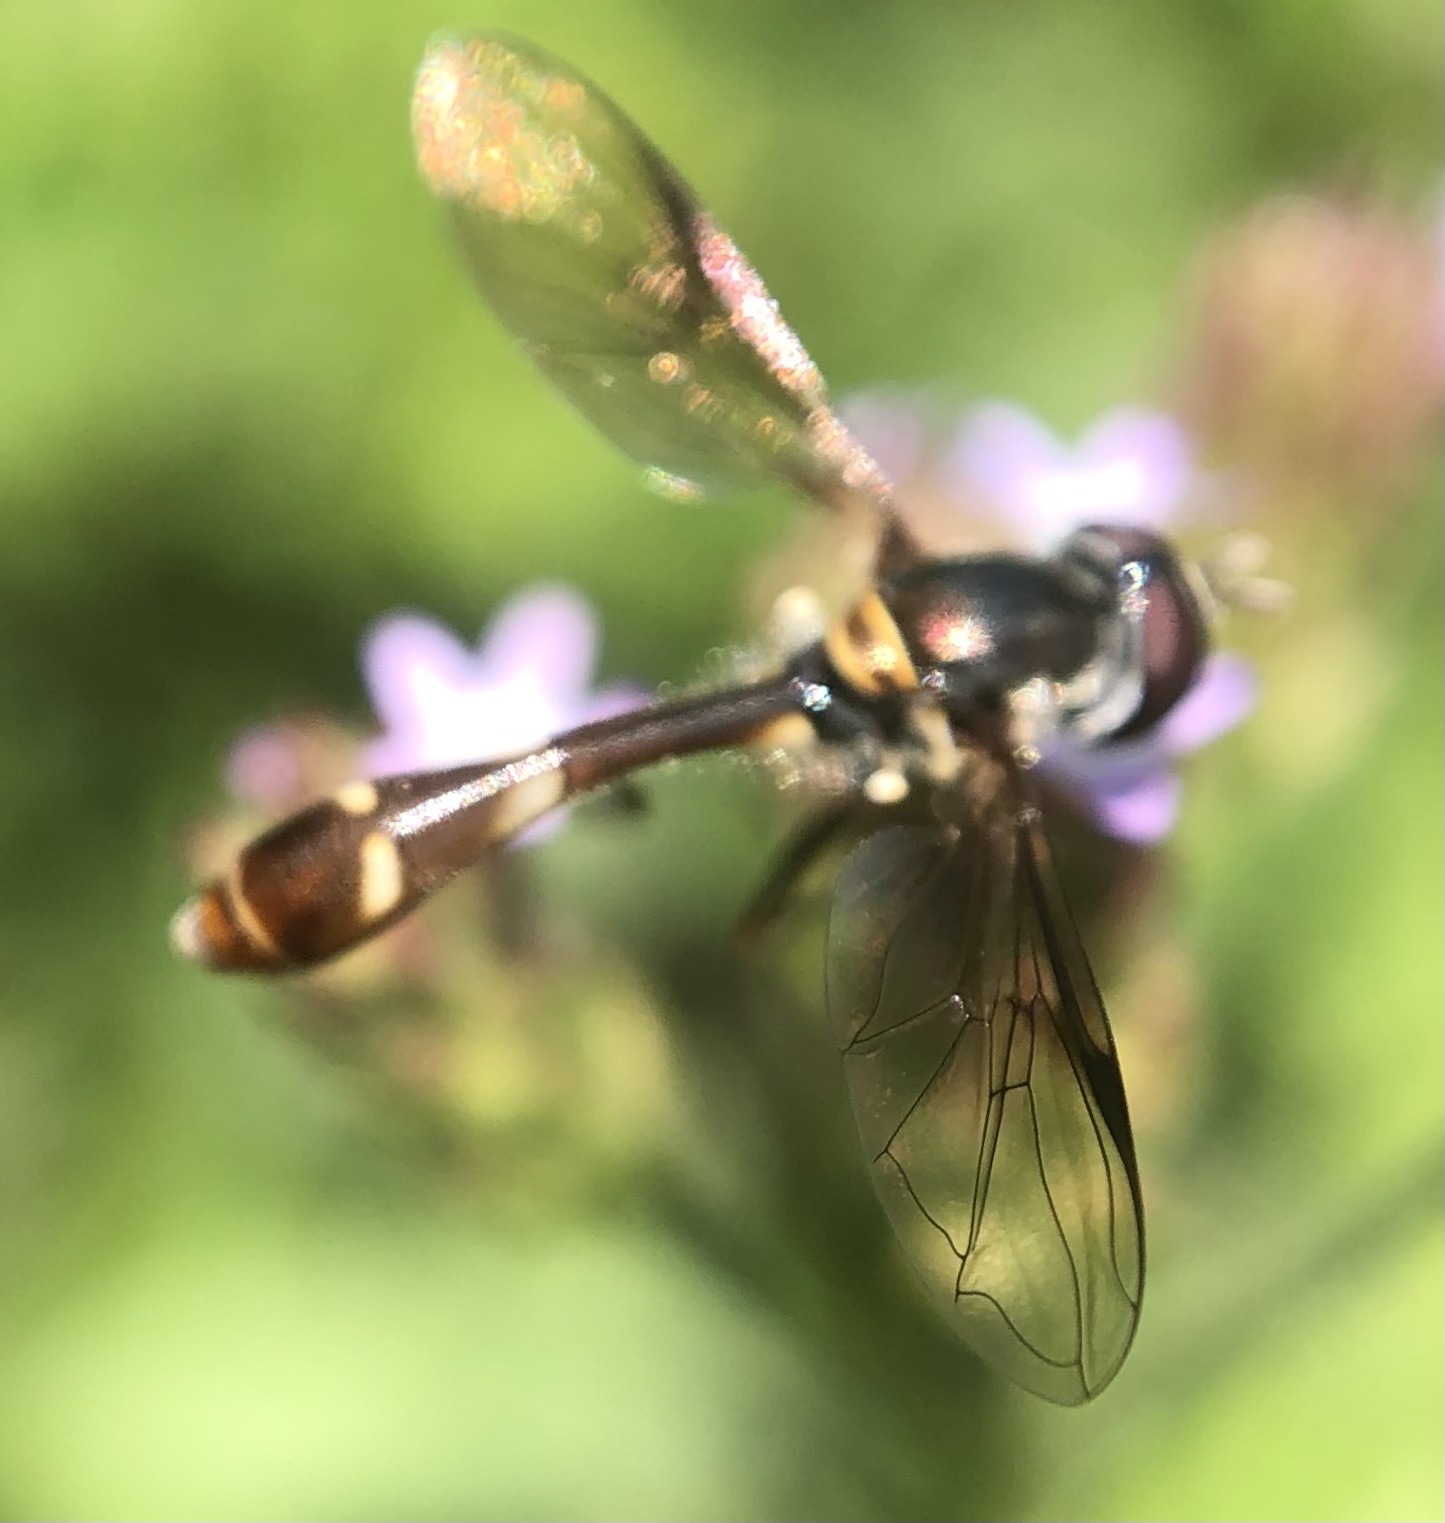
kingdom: Animalia
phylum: Arthropoda
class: Insecta
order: Diptera
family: Syrphidae
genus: Dioprosopa
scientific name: Dioprosopa clavatus
